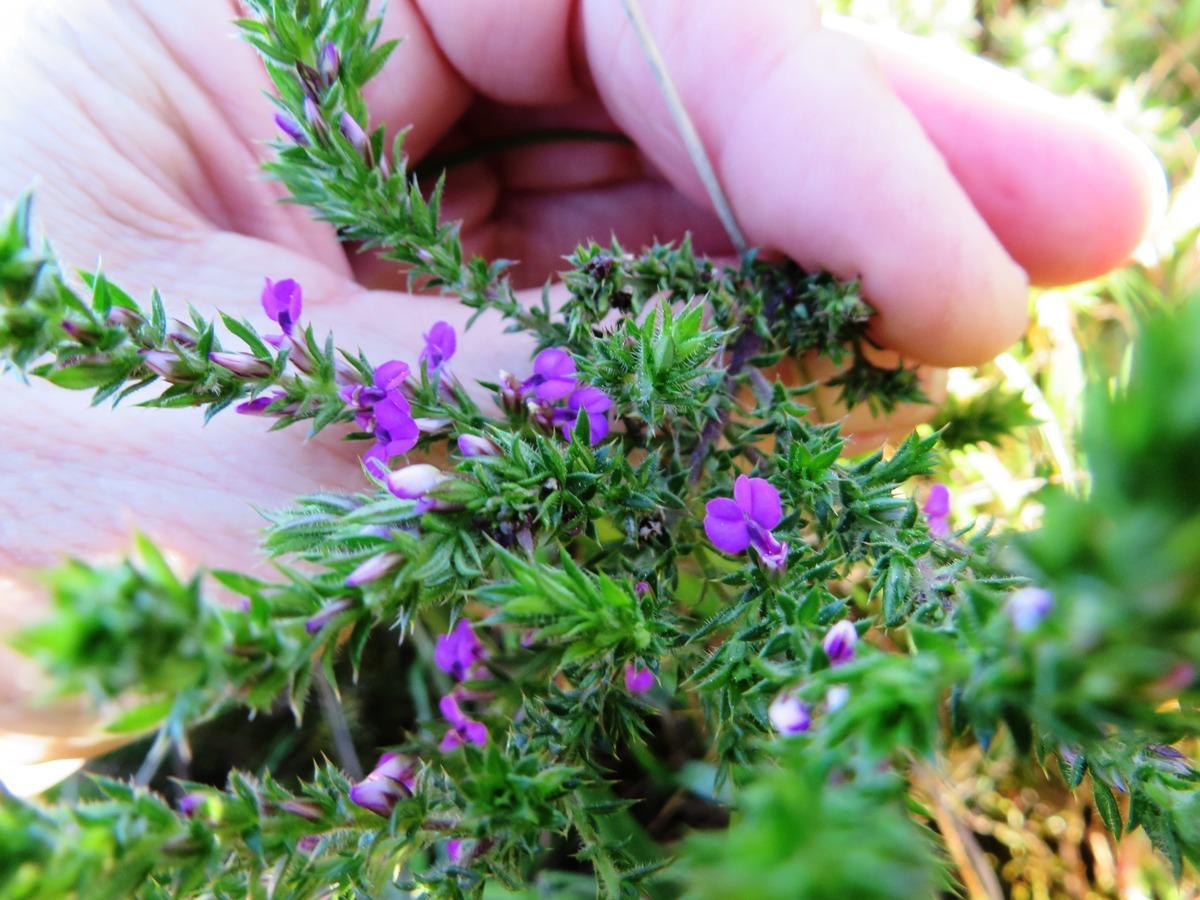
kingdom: Plantae
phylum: Tracheophyta
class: Magnoliopsida
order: Fabales
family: Polygalaceae
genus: Muraltia
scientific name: Muraltia heisteria
